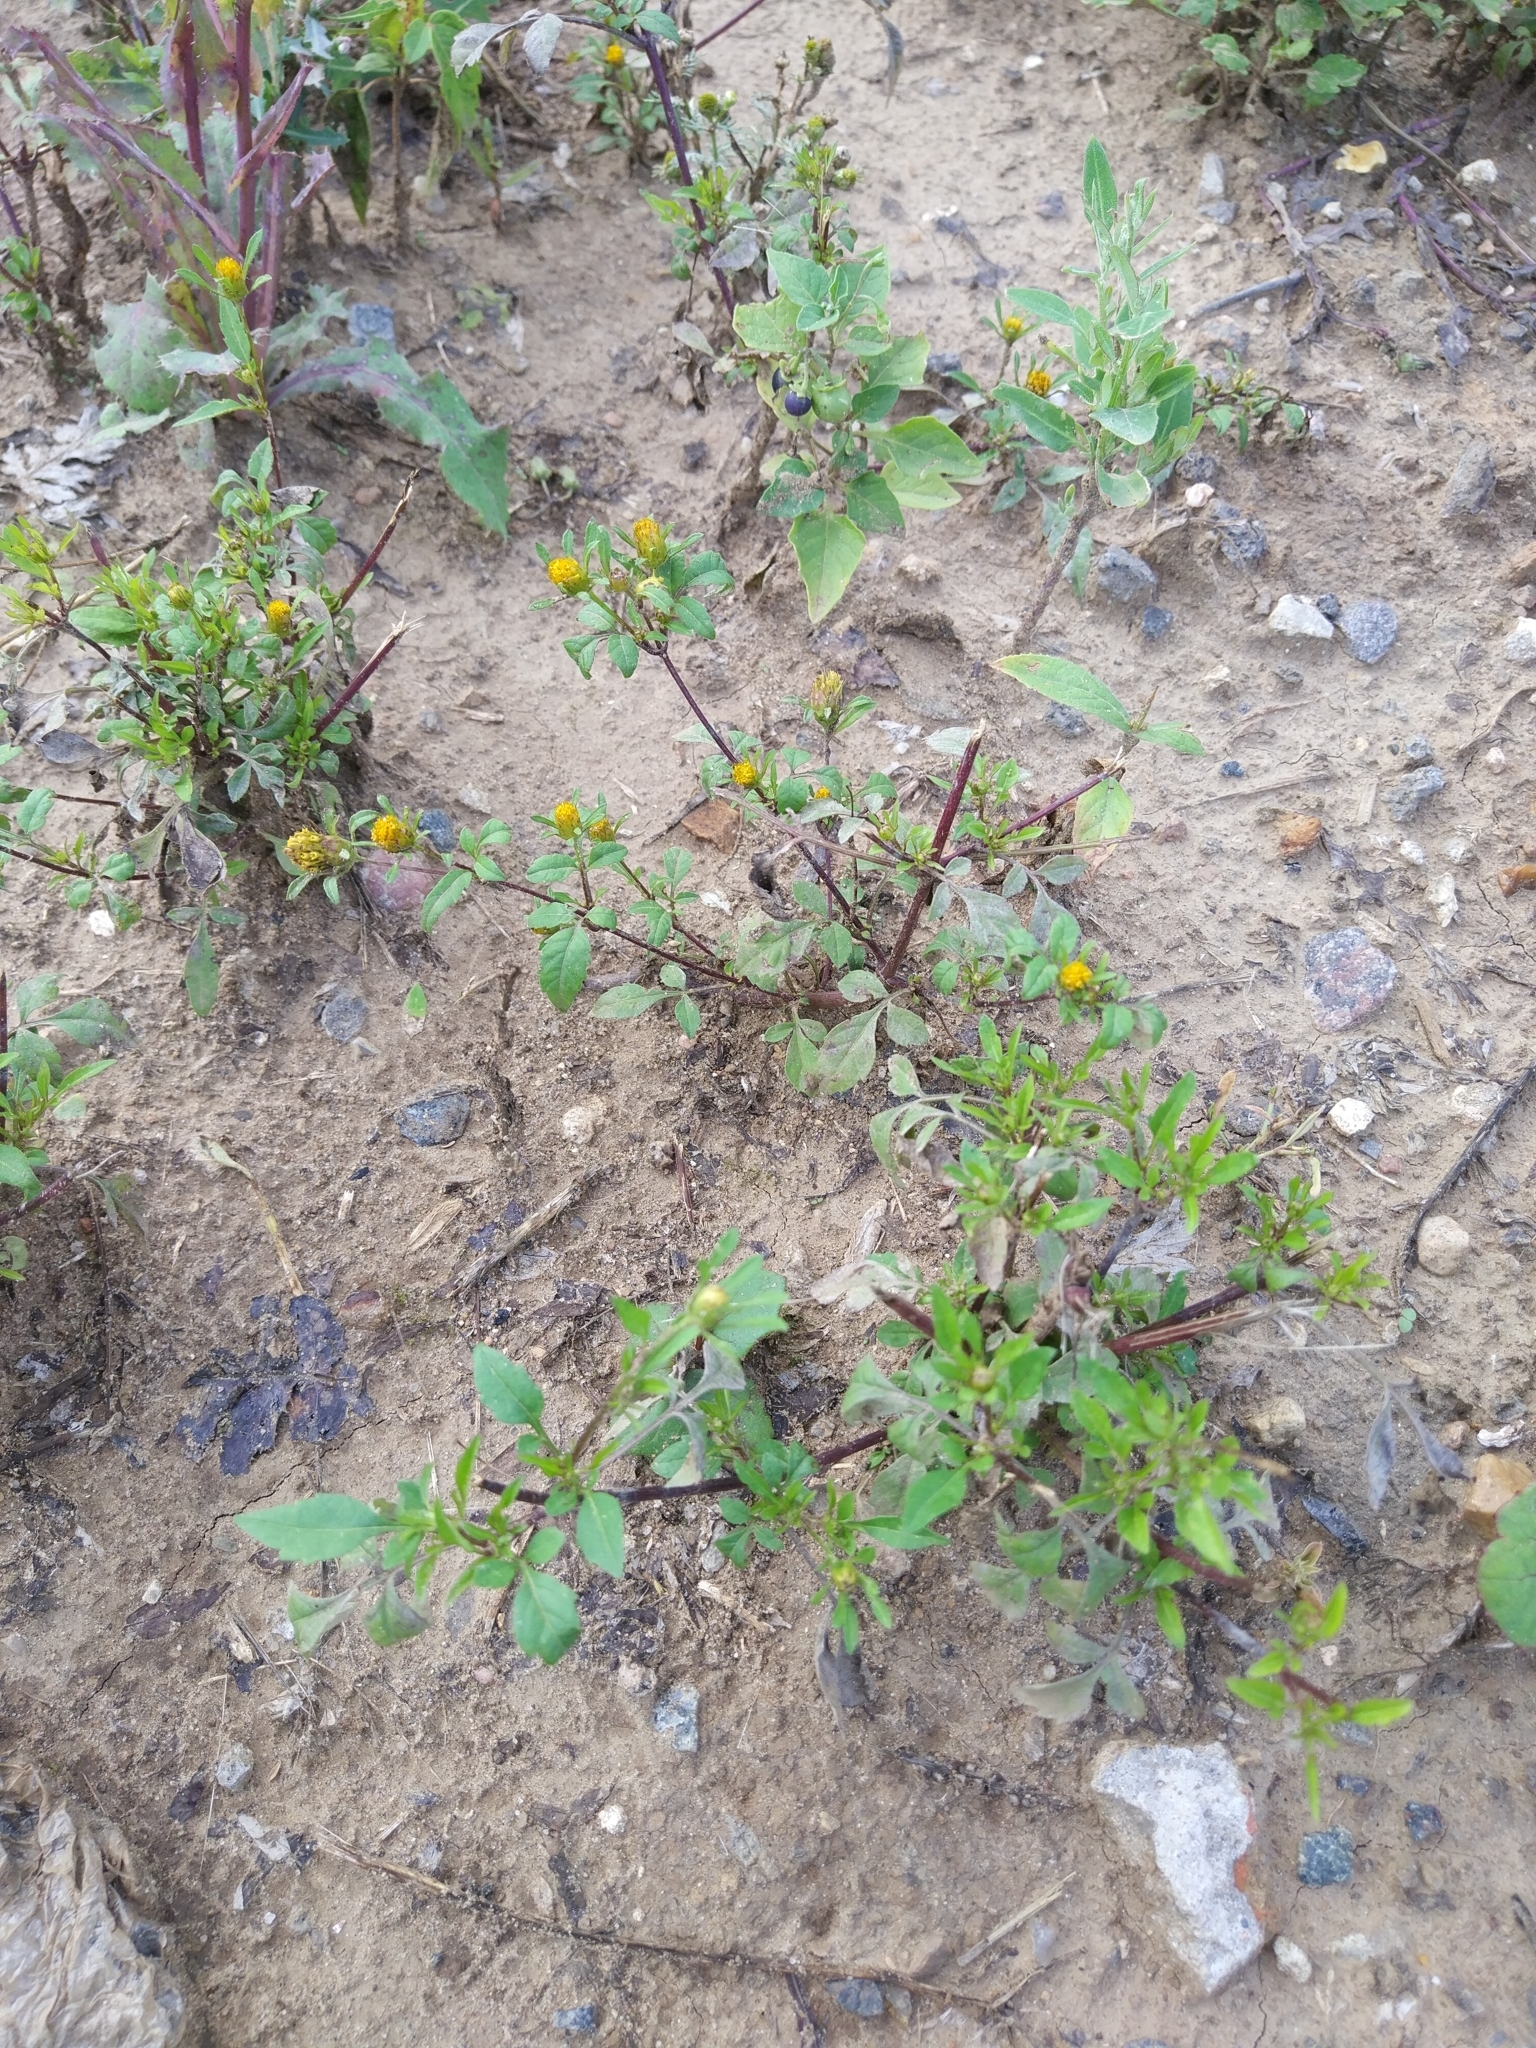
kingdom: Plantae
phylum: Tracheophyta
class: Magnoliopsida
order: Asterales
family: Asteraceae
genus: Bidens
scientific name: Bidens frondosa
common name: Beggarticks
